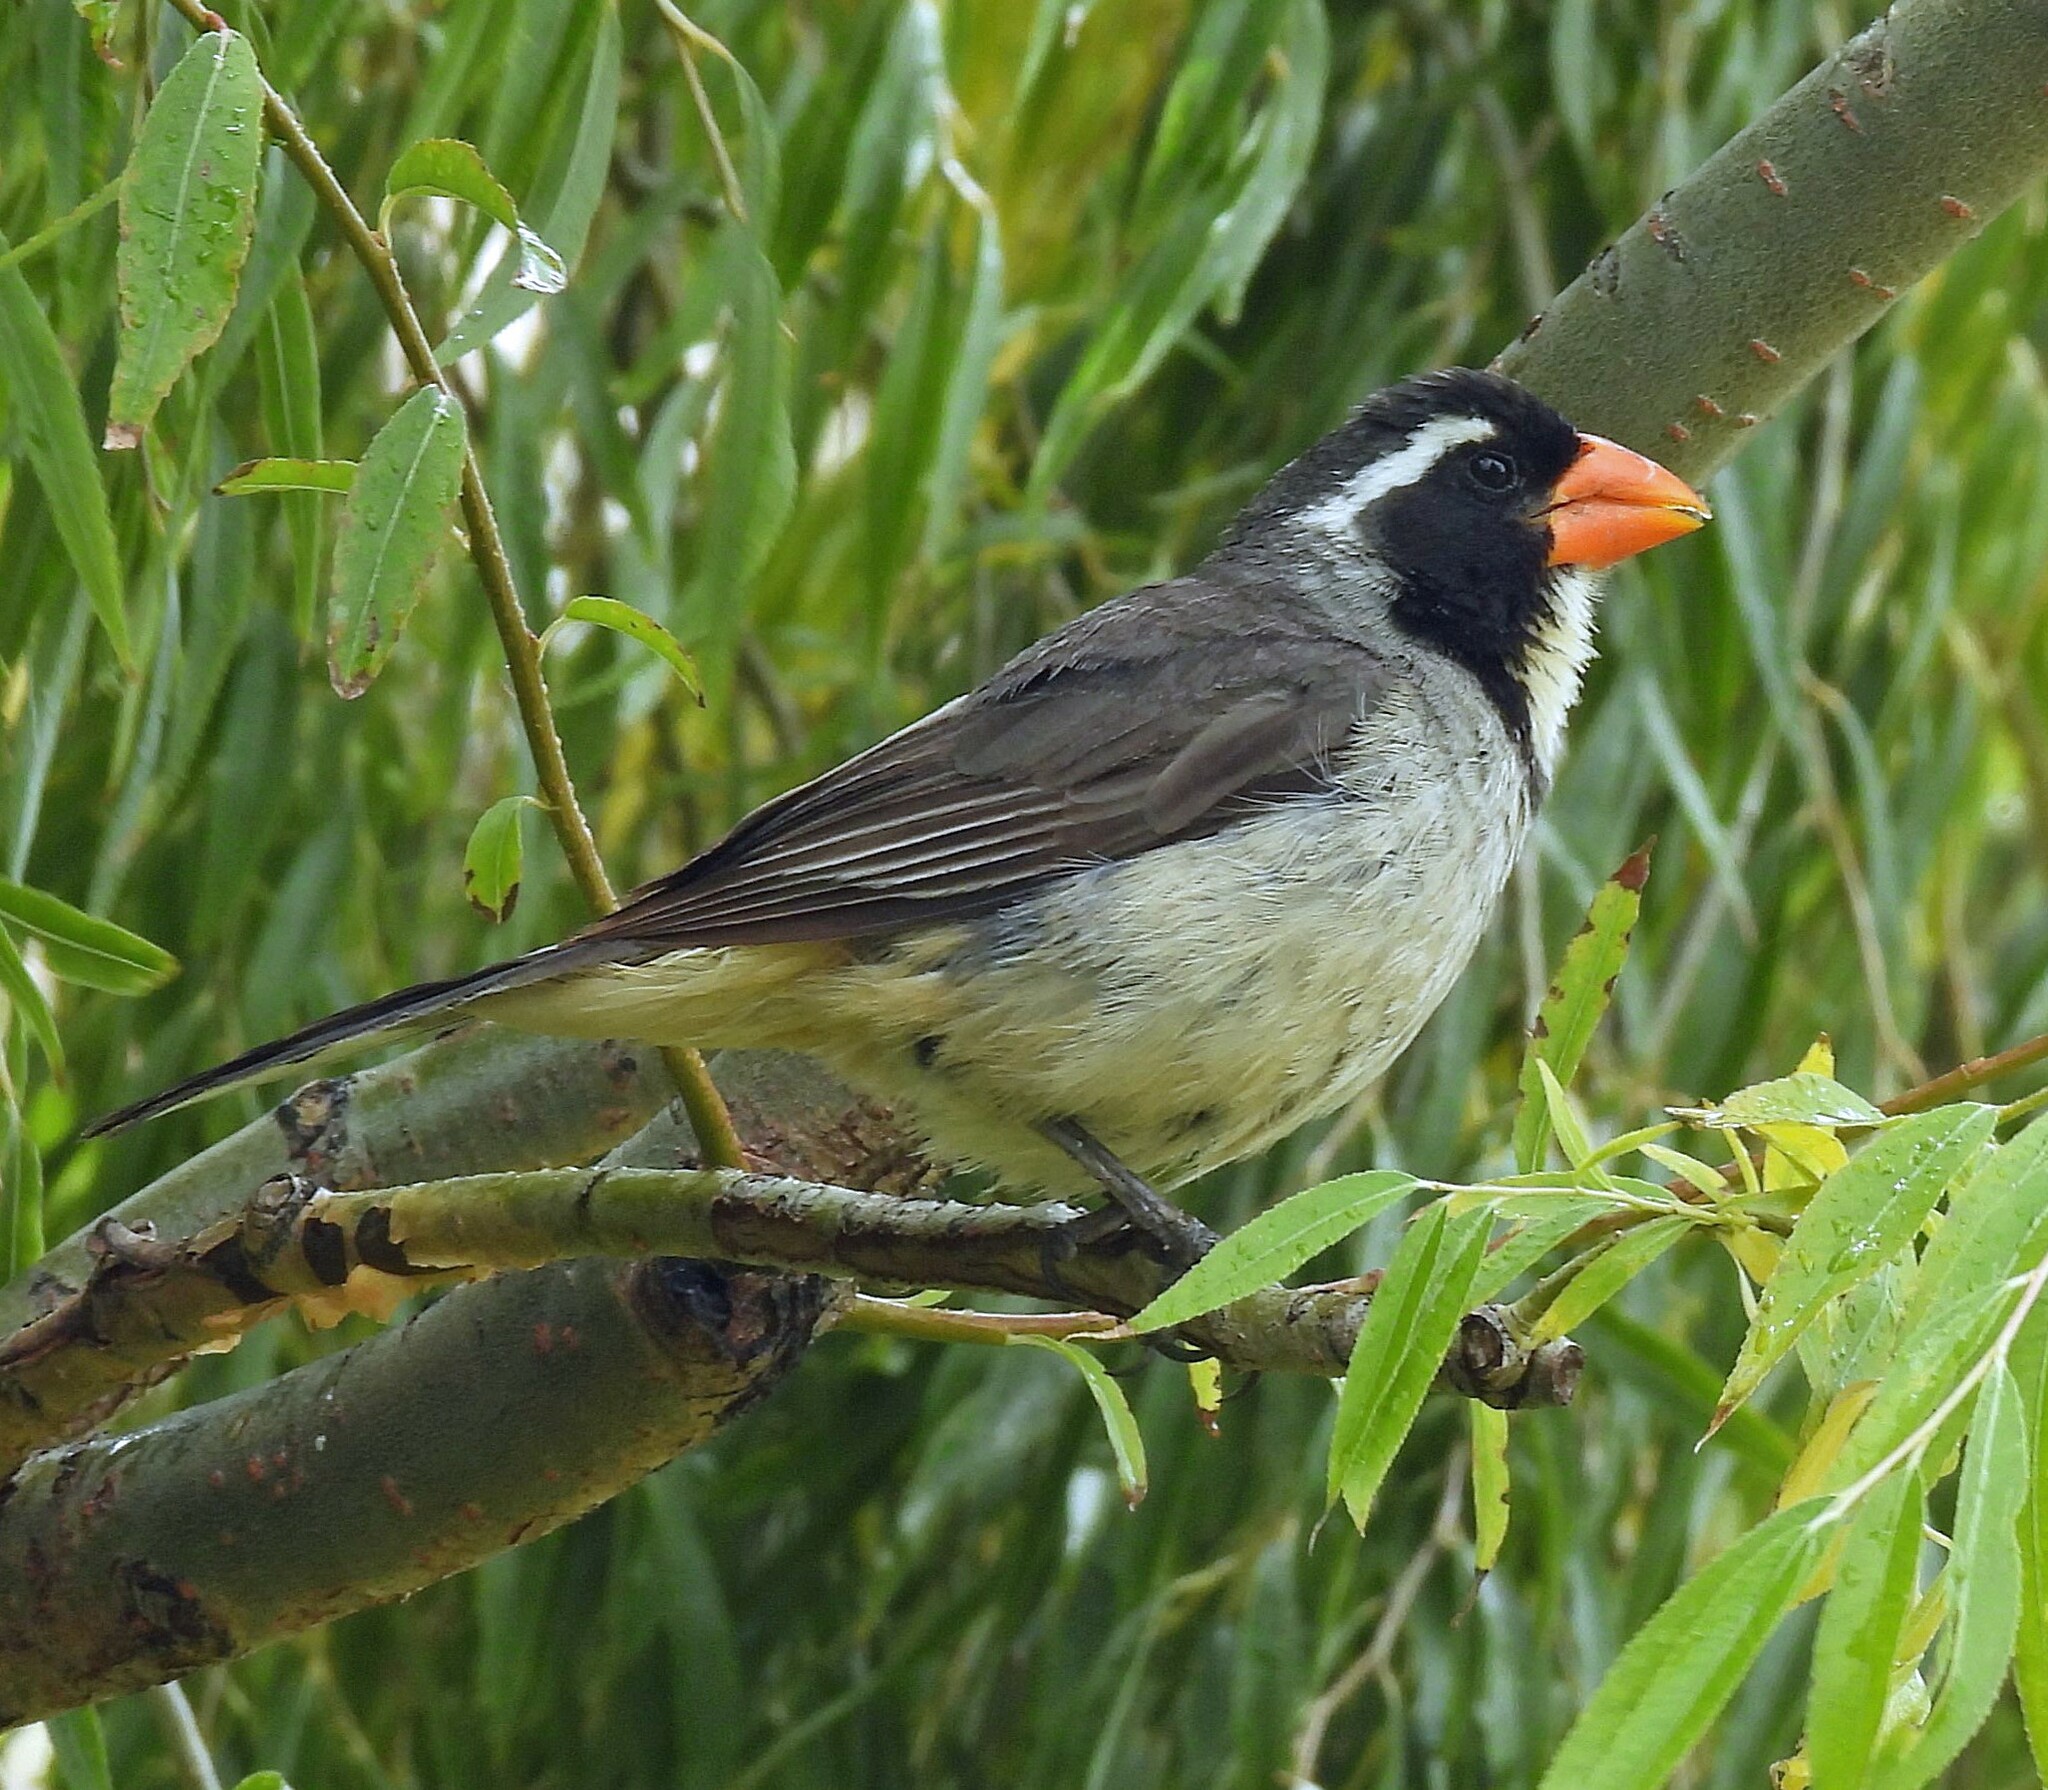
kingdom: Animalia
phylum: Chordata
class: Aves
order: Passeriformes
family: Thraupidae
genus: Saltator
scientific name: Saltator aurantiirostris
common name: Golden-billed saltator
